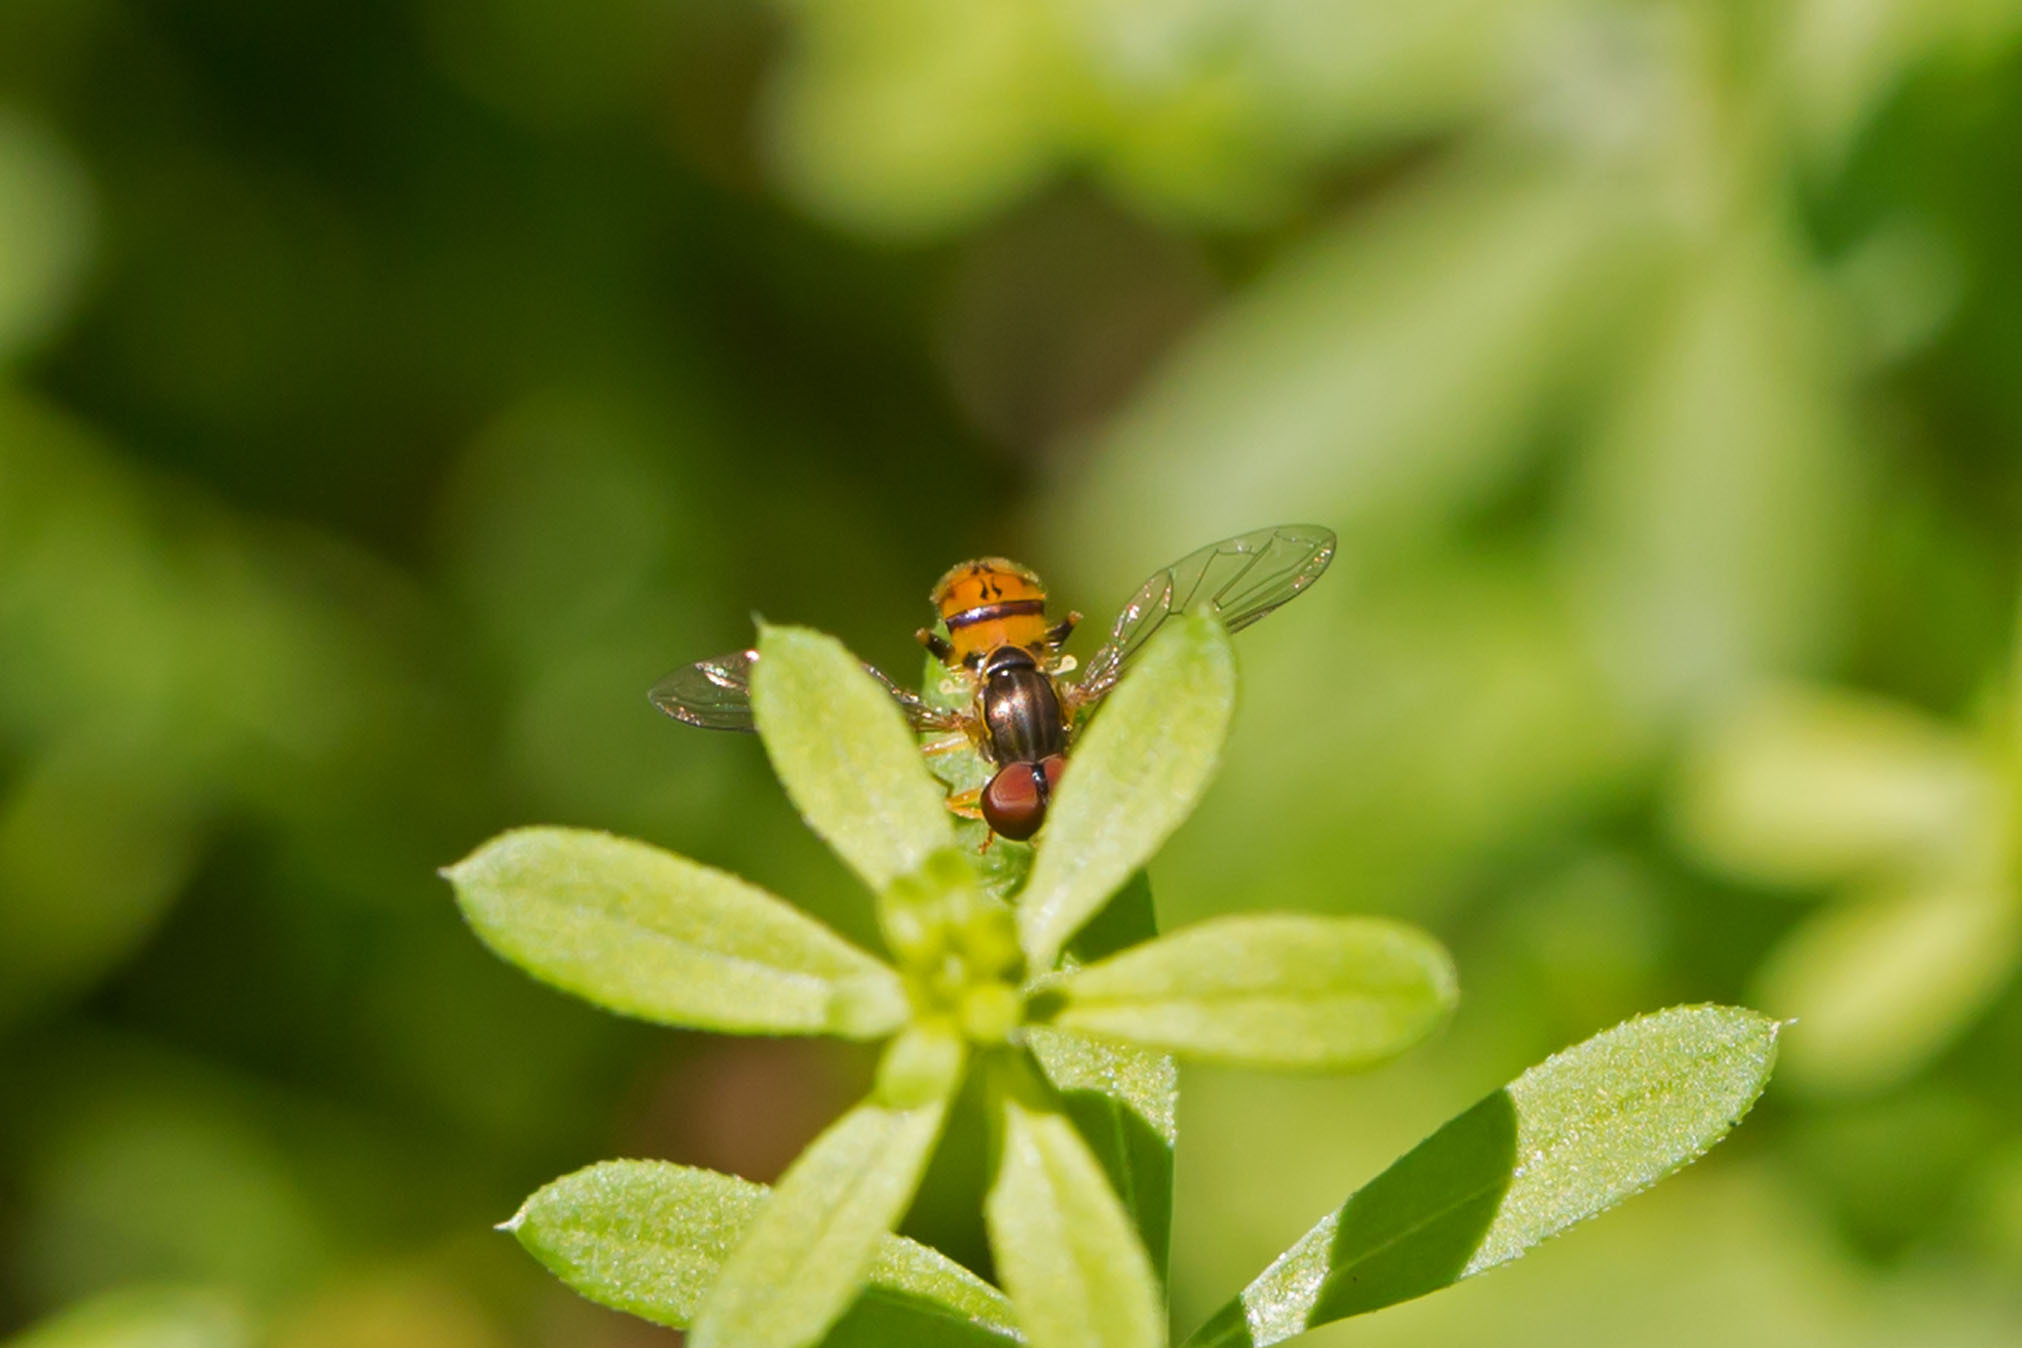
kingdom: Animalia
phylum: Arthropoda
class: Insecta
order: Diptera
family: Syrphidae
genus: Toxomerus
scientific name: Toxomerus boscii
